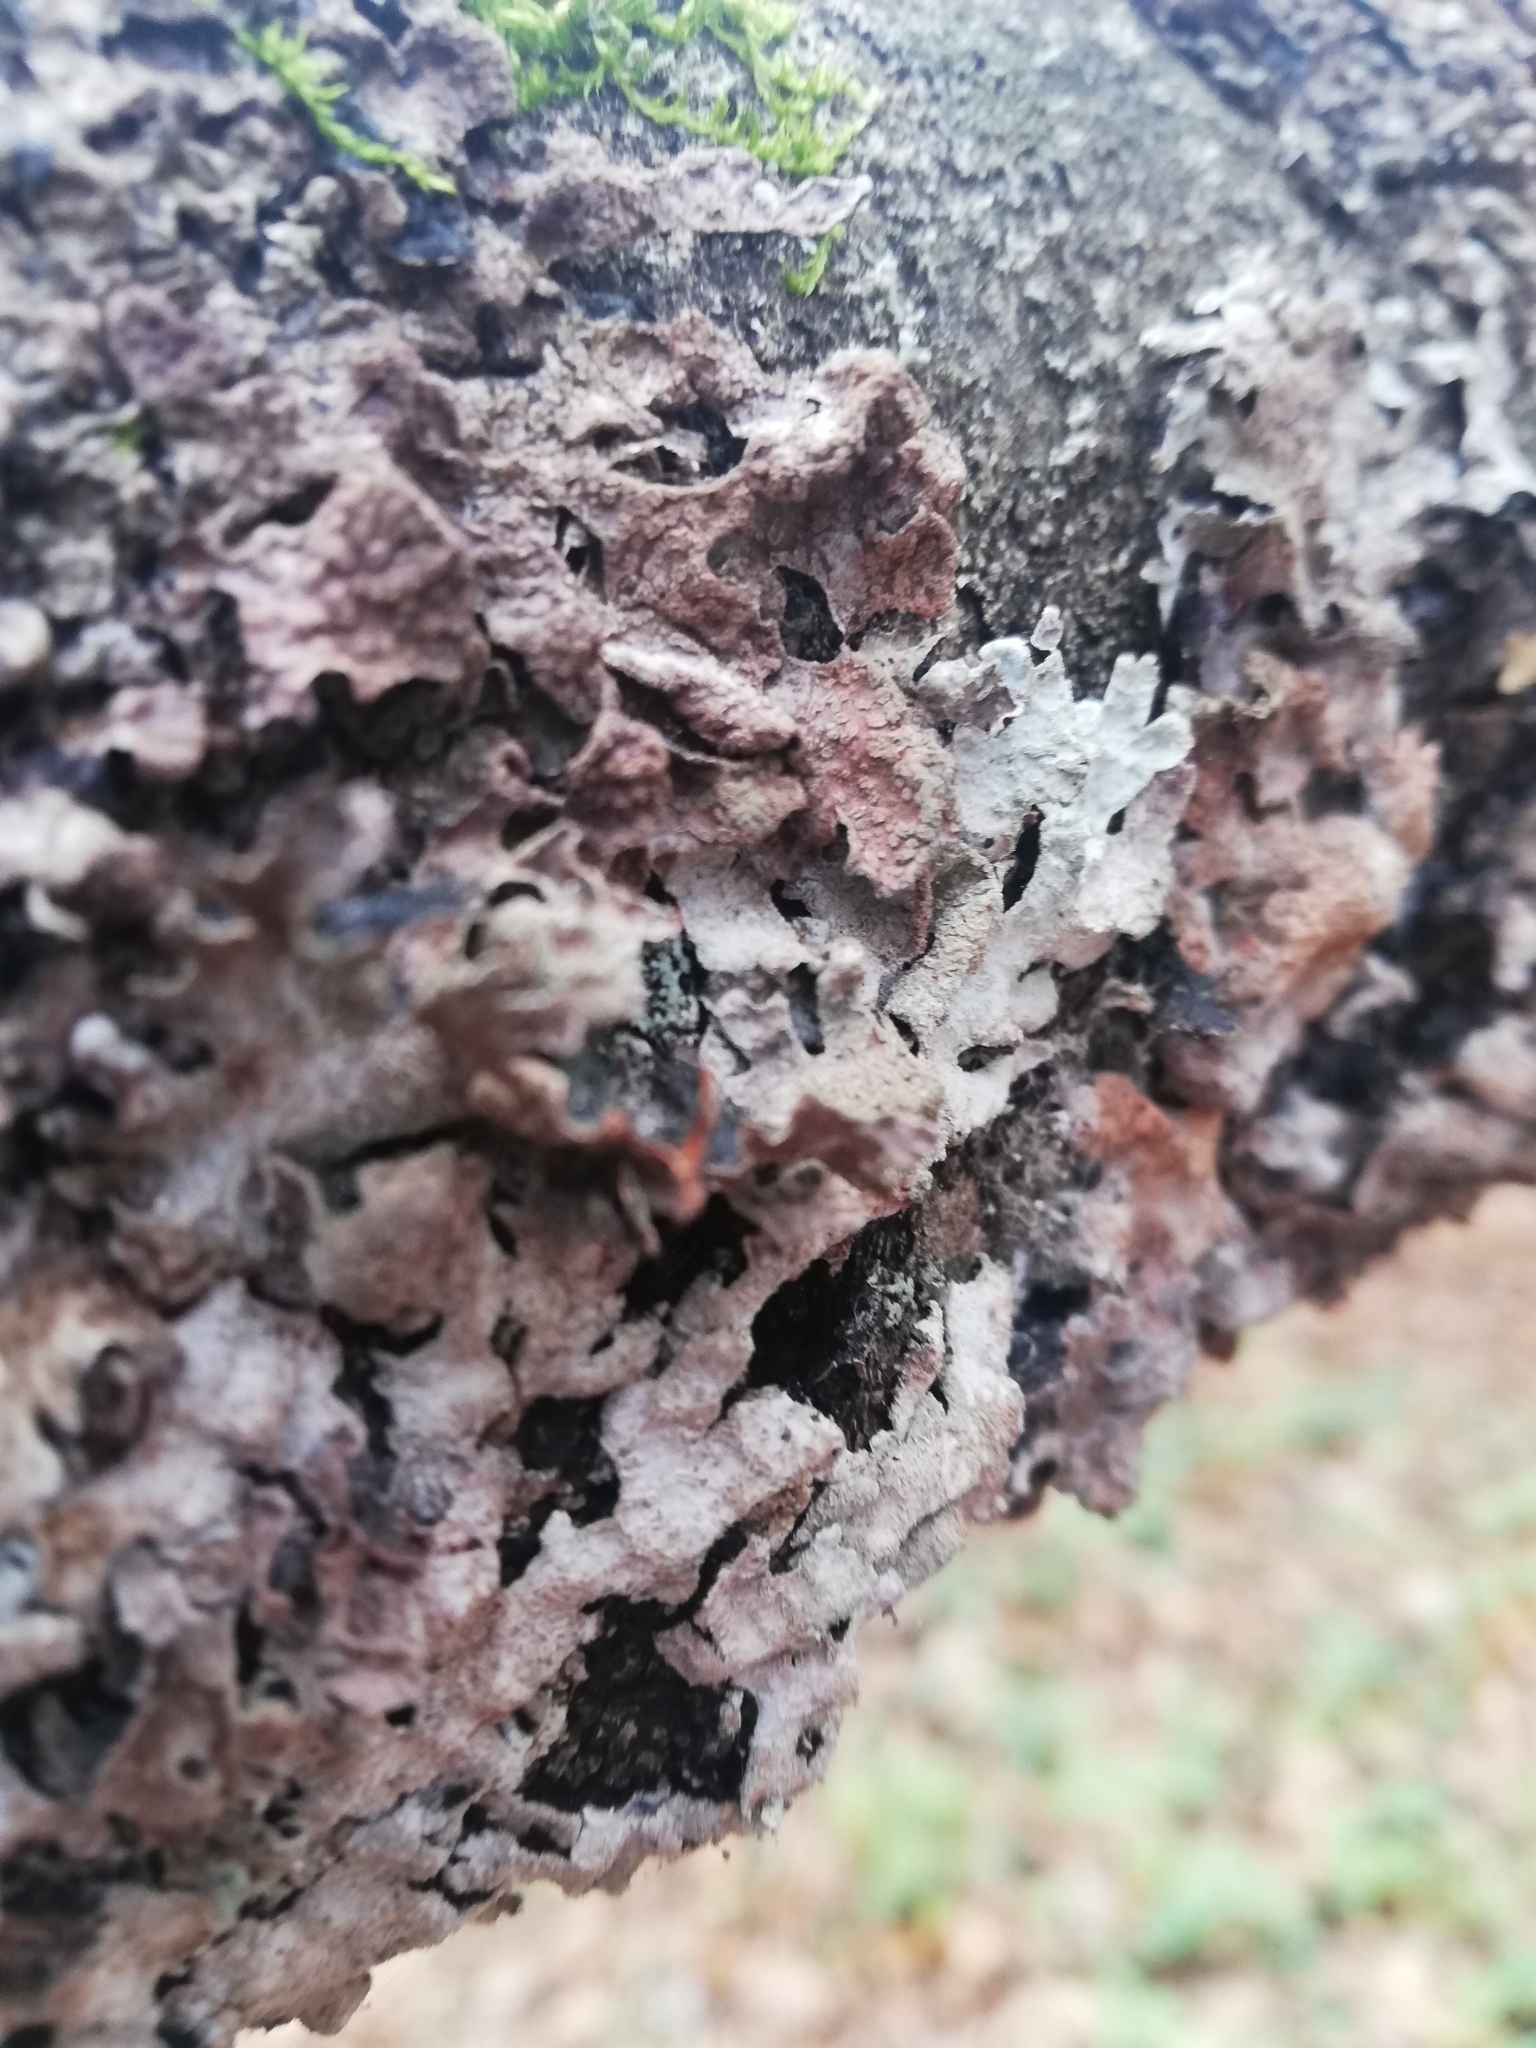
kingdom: Fungi
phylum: Ascomycota
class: Lecanoromycetes
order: Lecanorales
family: Parmeliaceae
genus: Parmelia
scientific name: Parmelia sulcata
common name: Netted shield lichen
